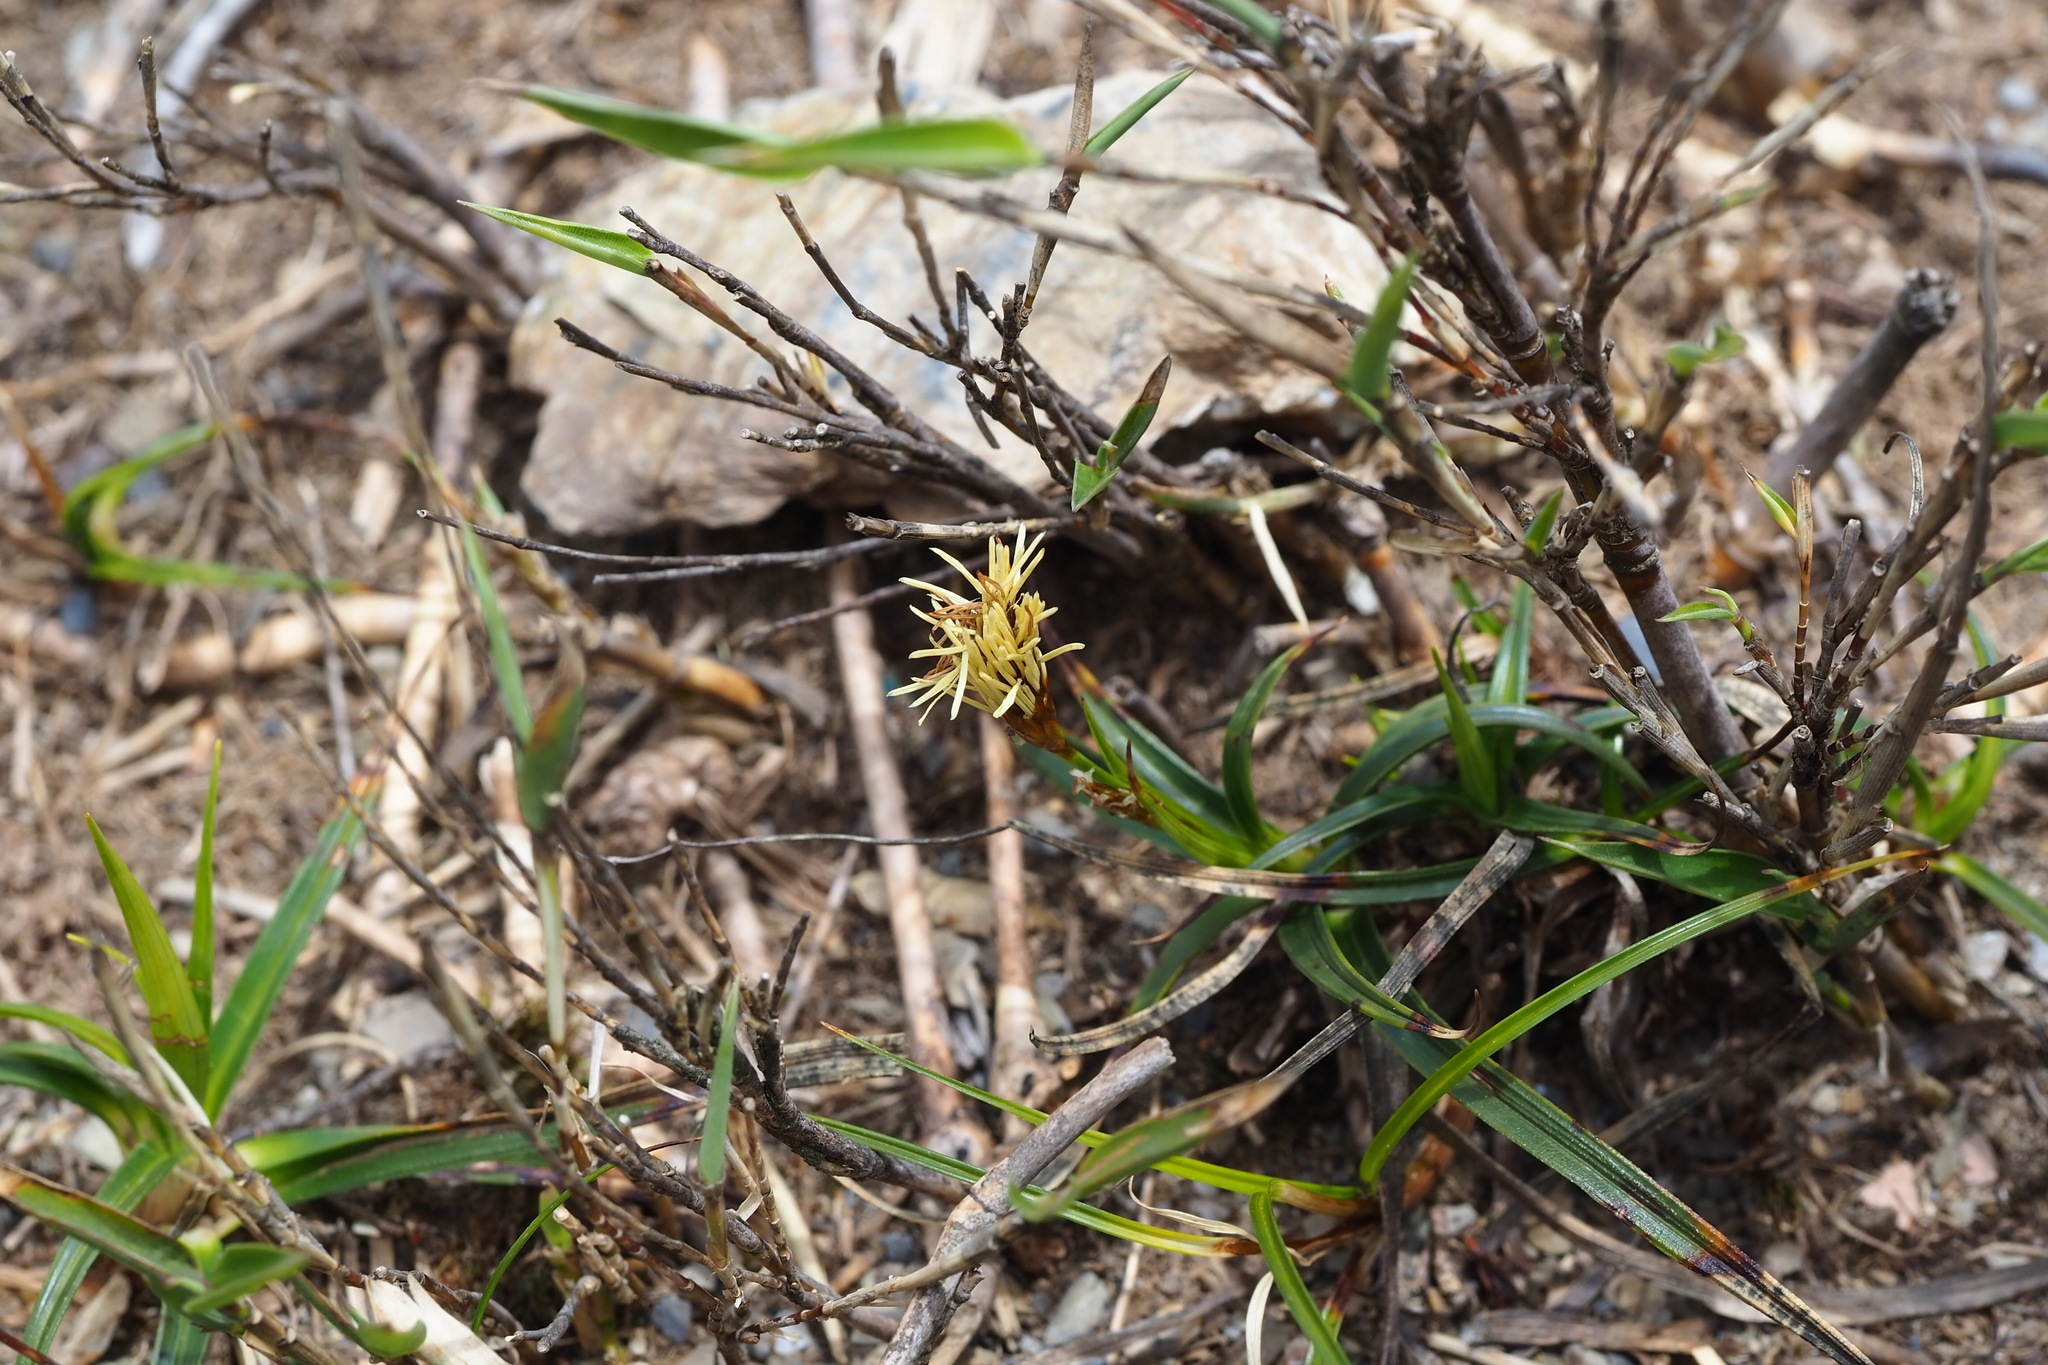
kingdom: Plantae
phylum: Tracheophyta
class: Liliopsida
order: Poales
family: Cyperaceae
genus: Carex
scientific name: Carex chrysolepis
